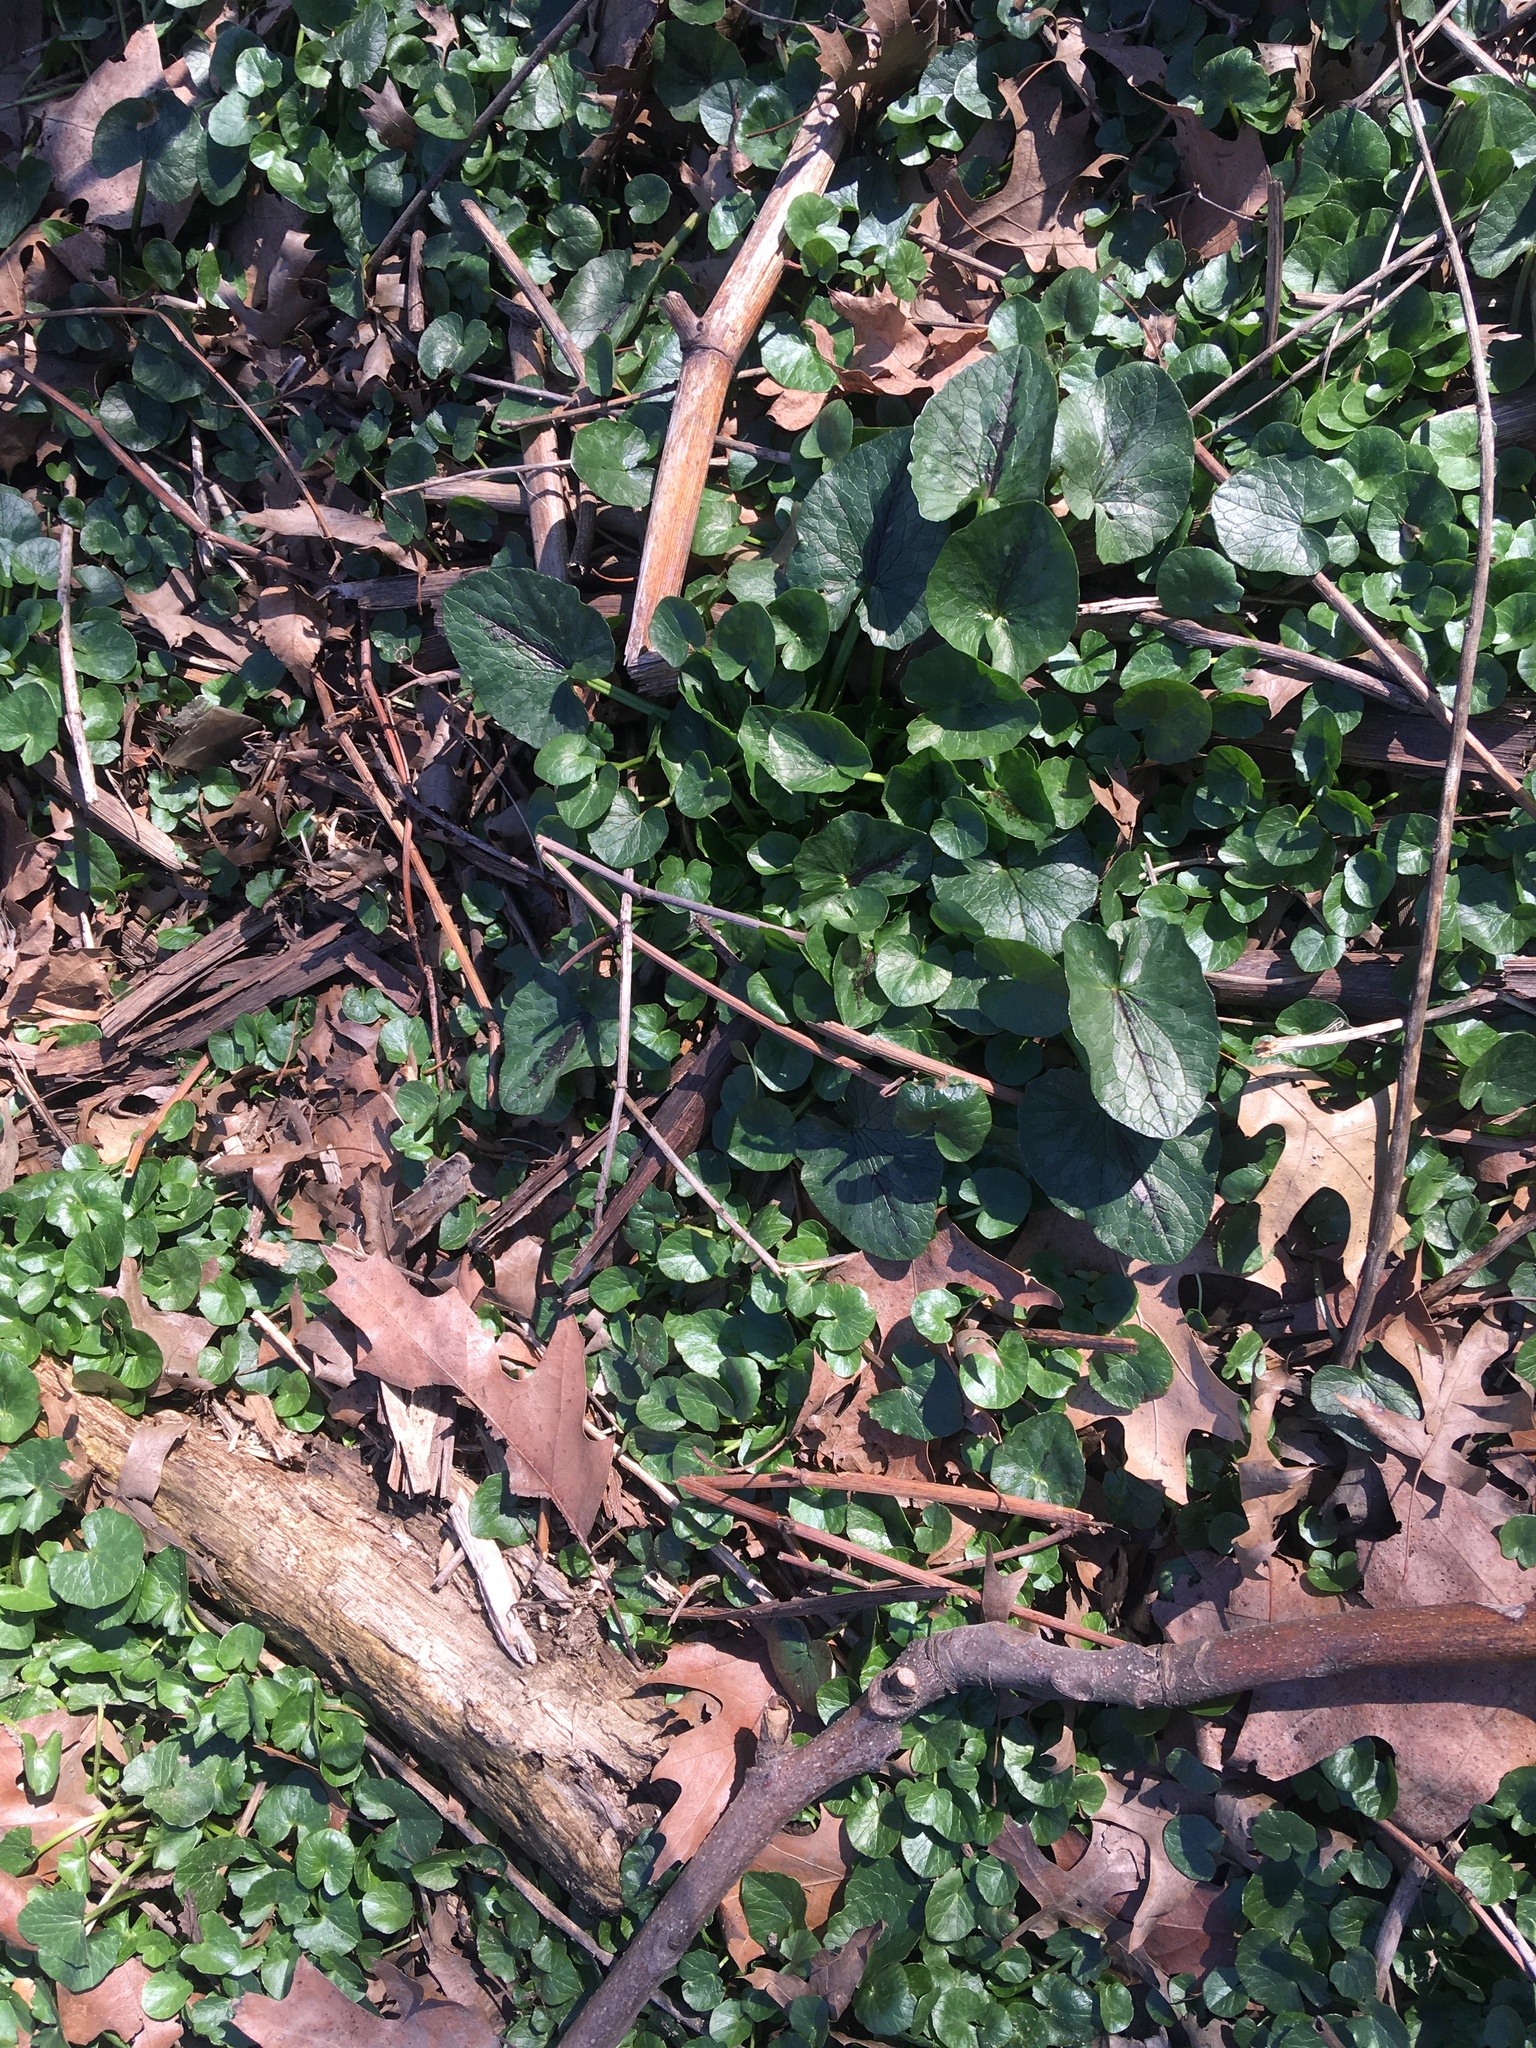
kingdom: Plantae
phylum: Tracheophyta
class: Magnoliopsida
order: Ranunculales
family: Ranunculaceae
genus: Ficaria
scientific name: Ficaria verna
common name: Lesser celandine
